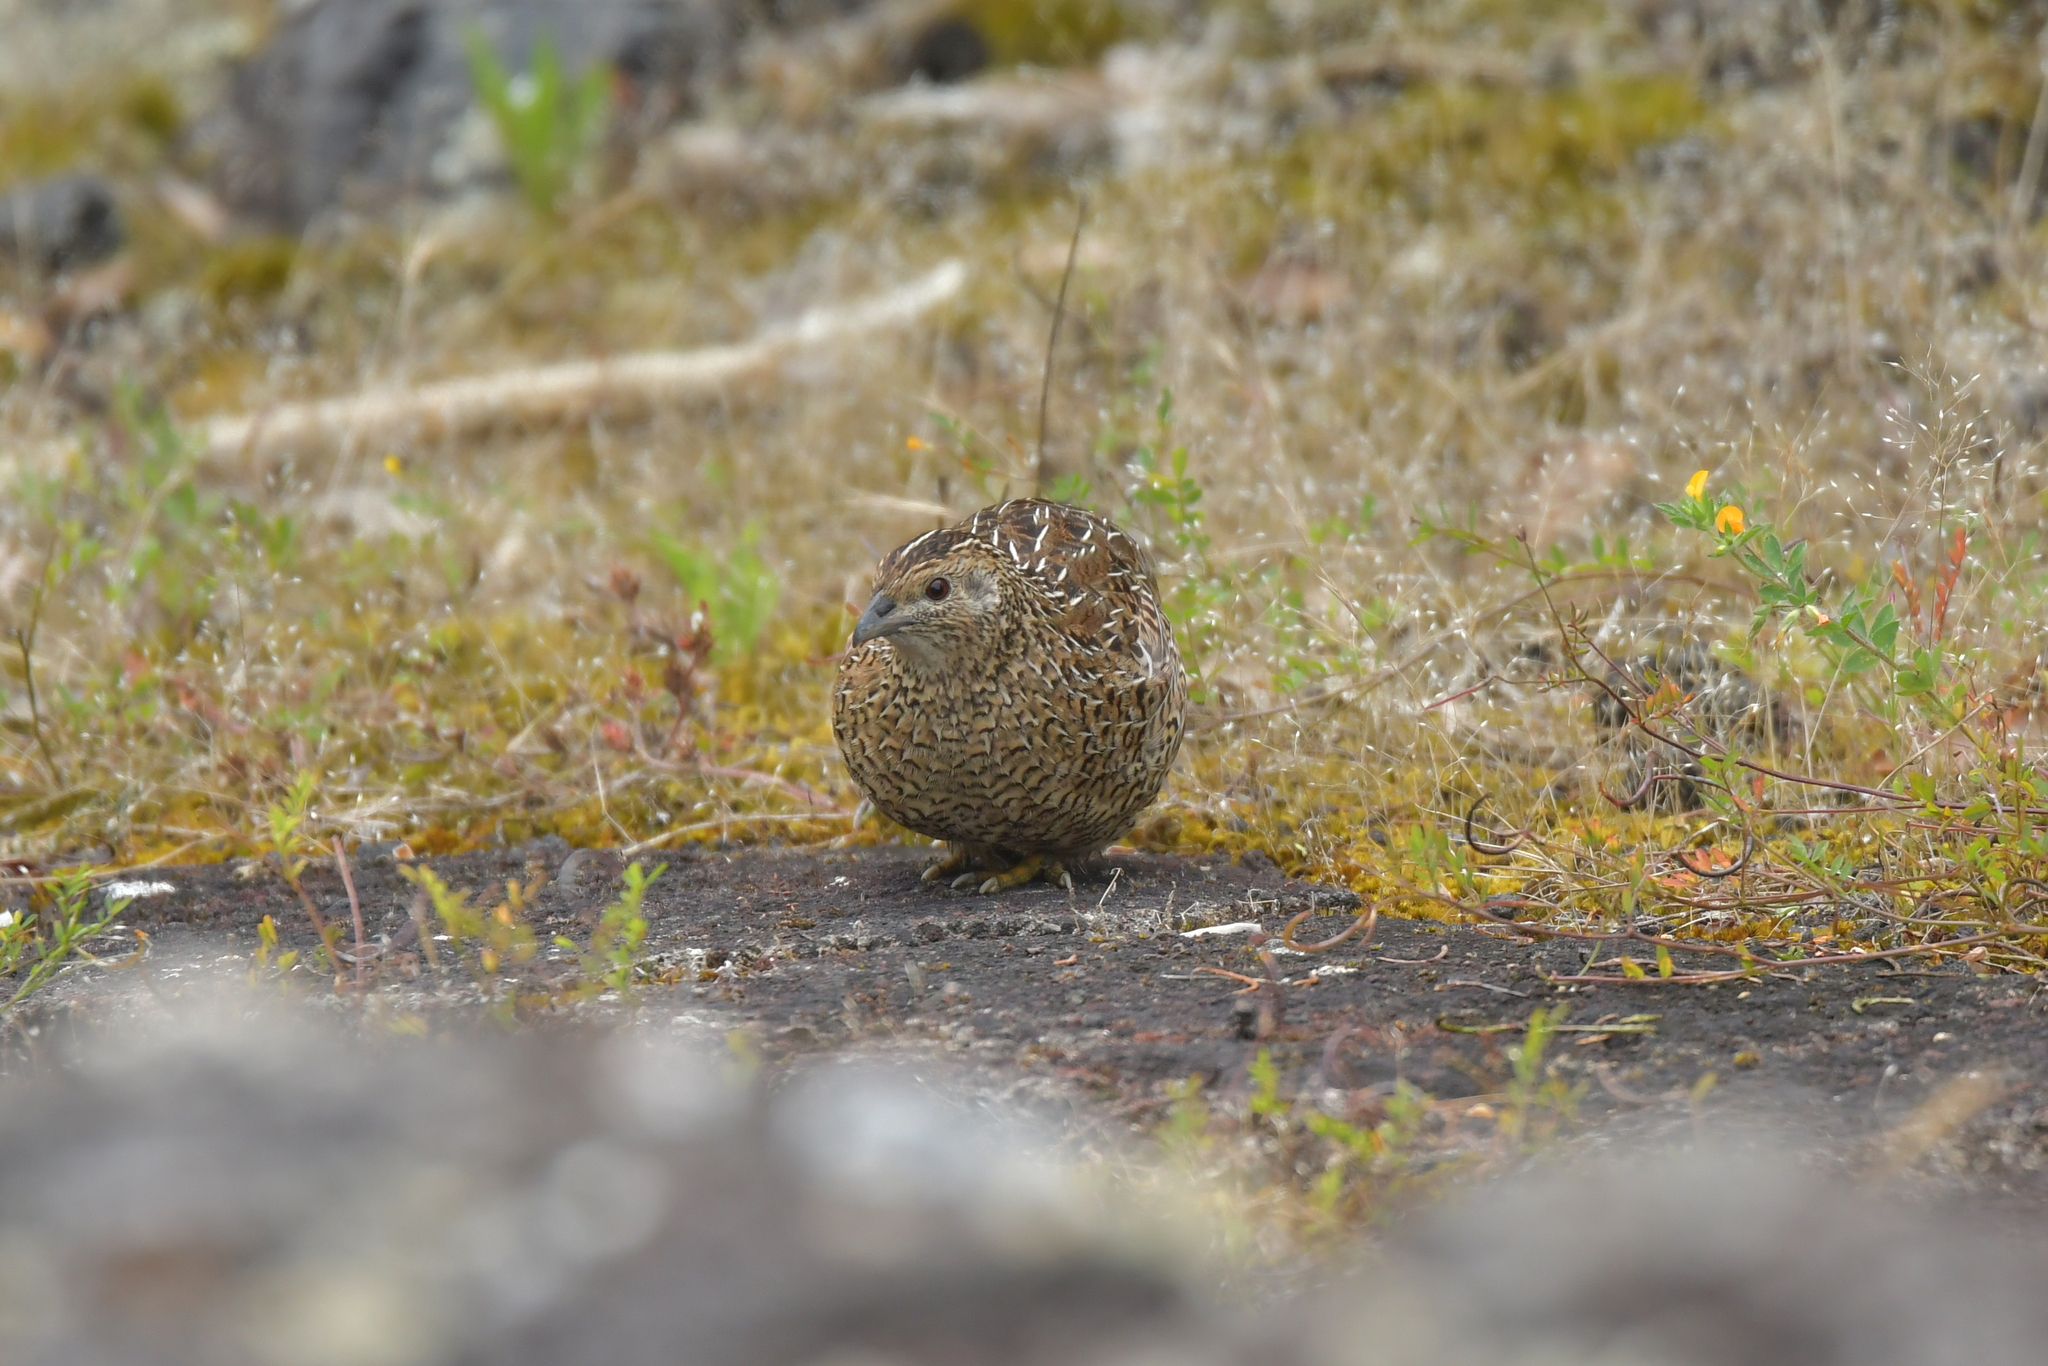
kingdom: Animalia
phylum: Chordata
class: Aves
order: Galliformes
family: Phasianidae
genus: Synoicus
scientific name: Synoicus ypsilophorus
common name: Brown quail
